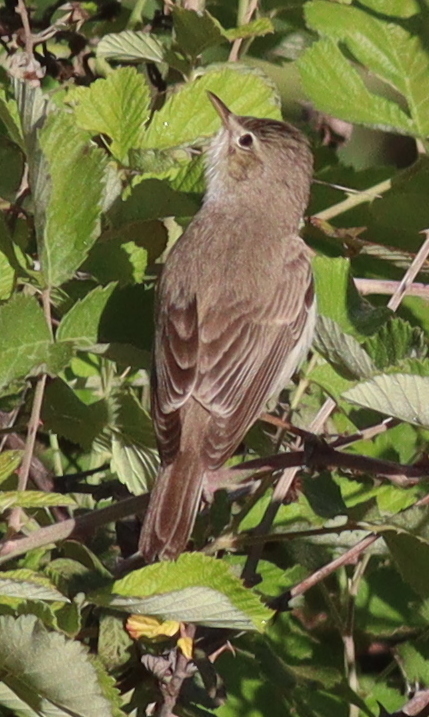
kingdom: Animalia
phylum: Chordata
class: Aves
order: Passeriformes
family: Acrocephalidae
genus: Iduna
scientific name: Iduna pallida
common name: Eastern olivaceous warbler
